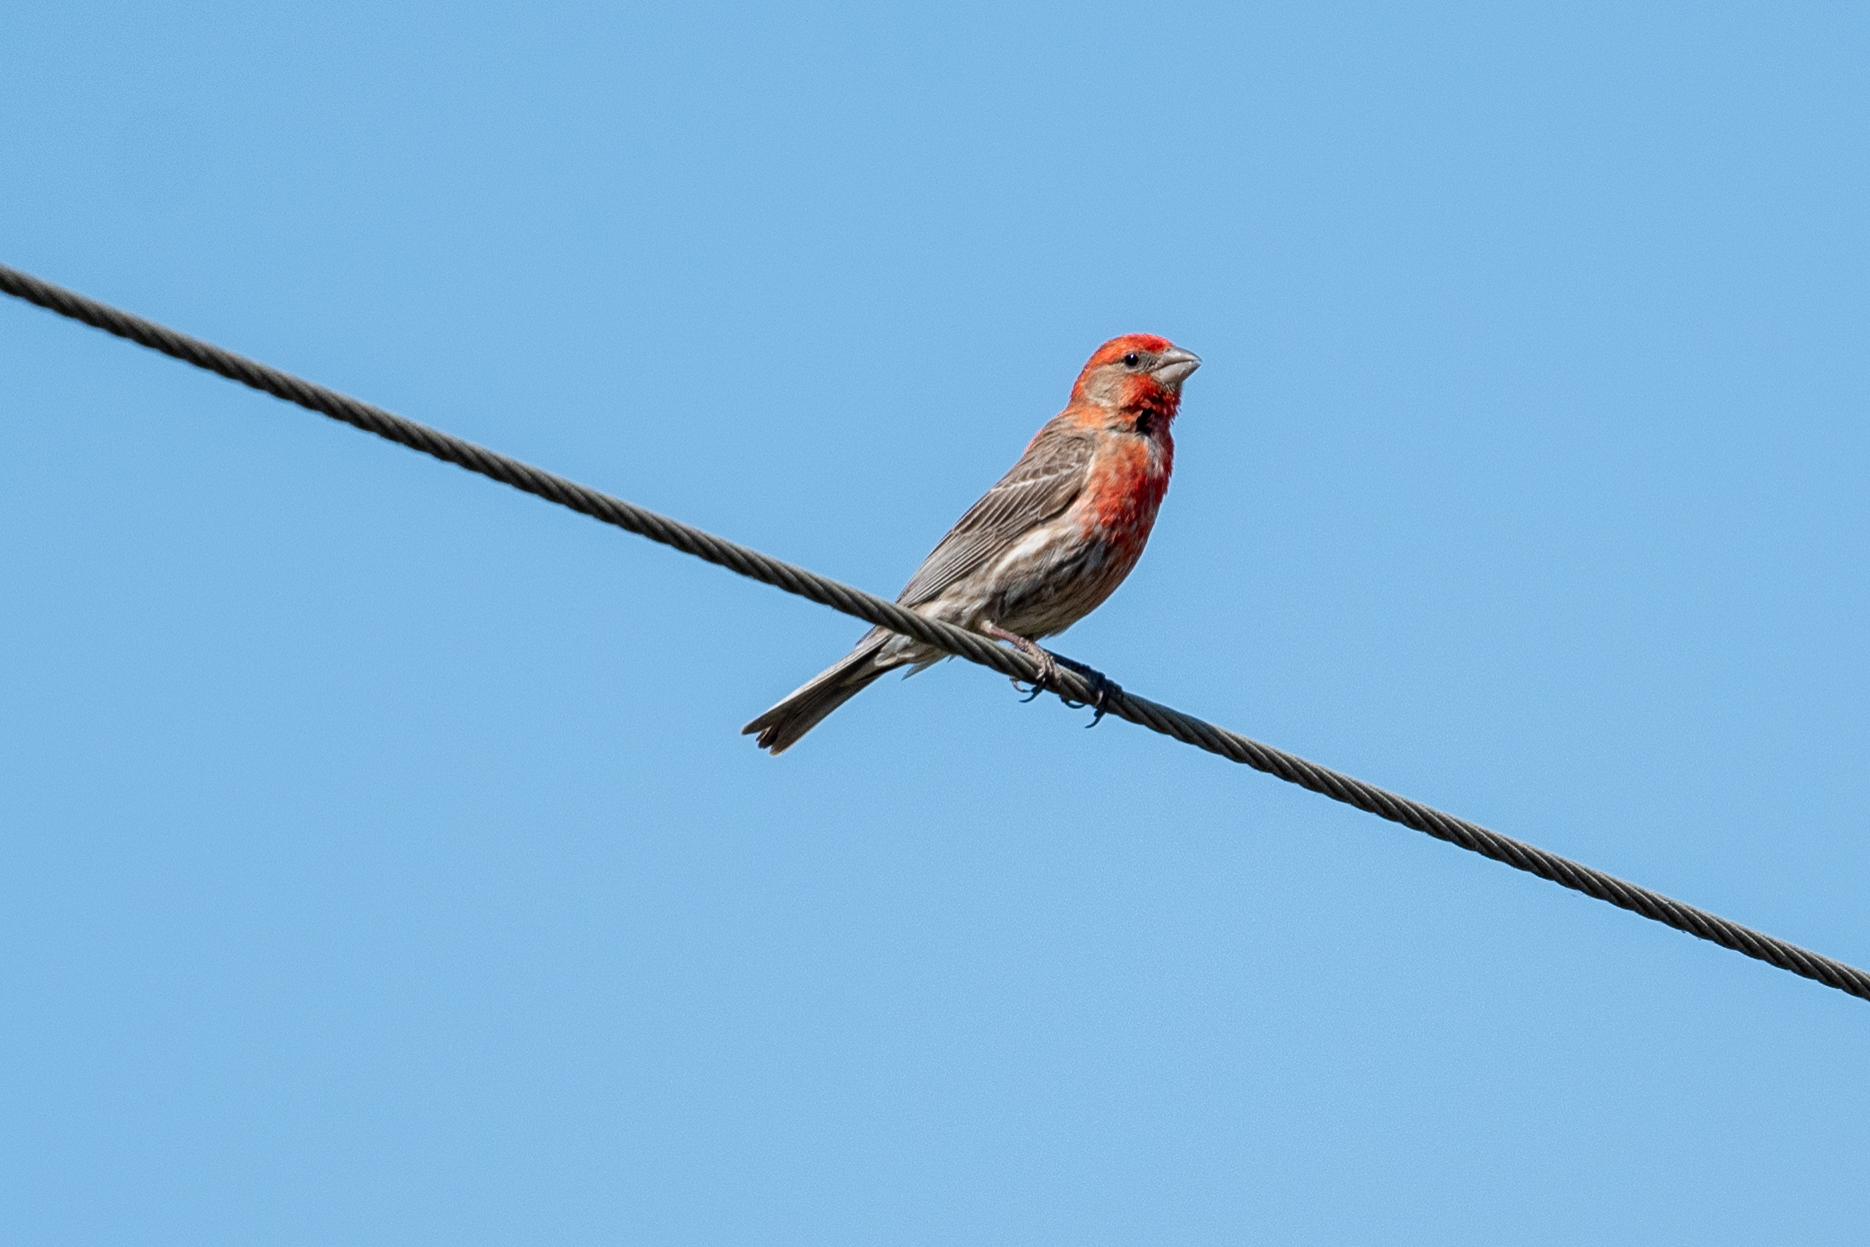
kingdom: Animalia
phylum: Chordata
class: Aves
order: Passeriformes
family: Fringillidae
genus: Haemorhous
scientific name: Haemorhous mexicanus
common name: House finch
